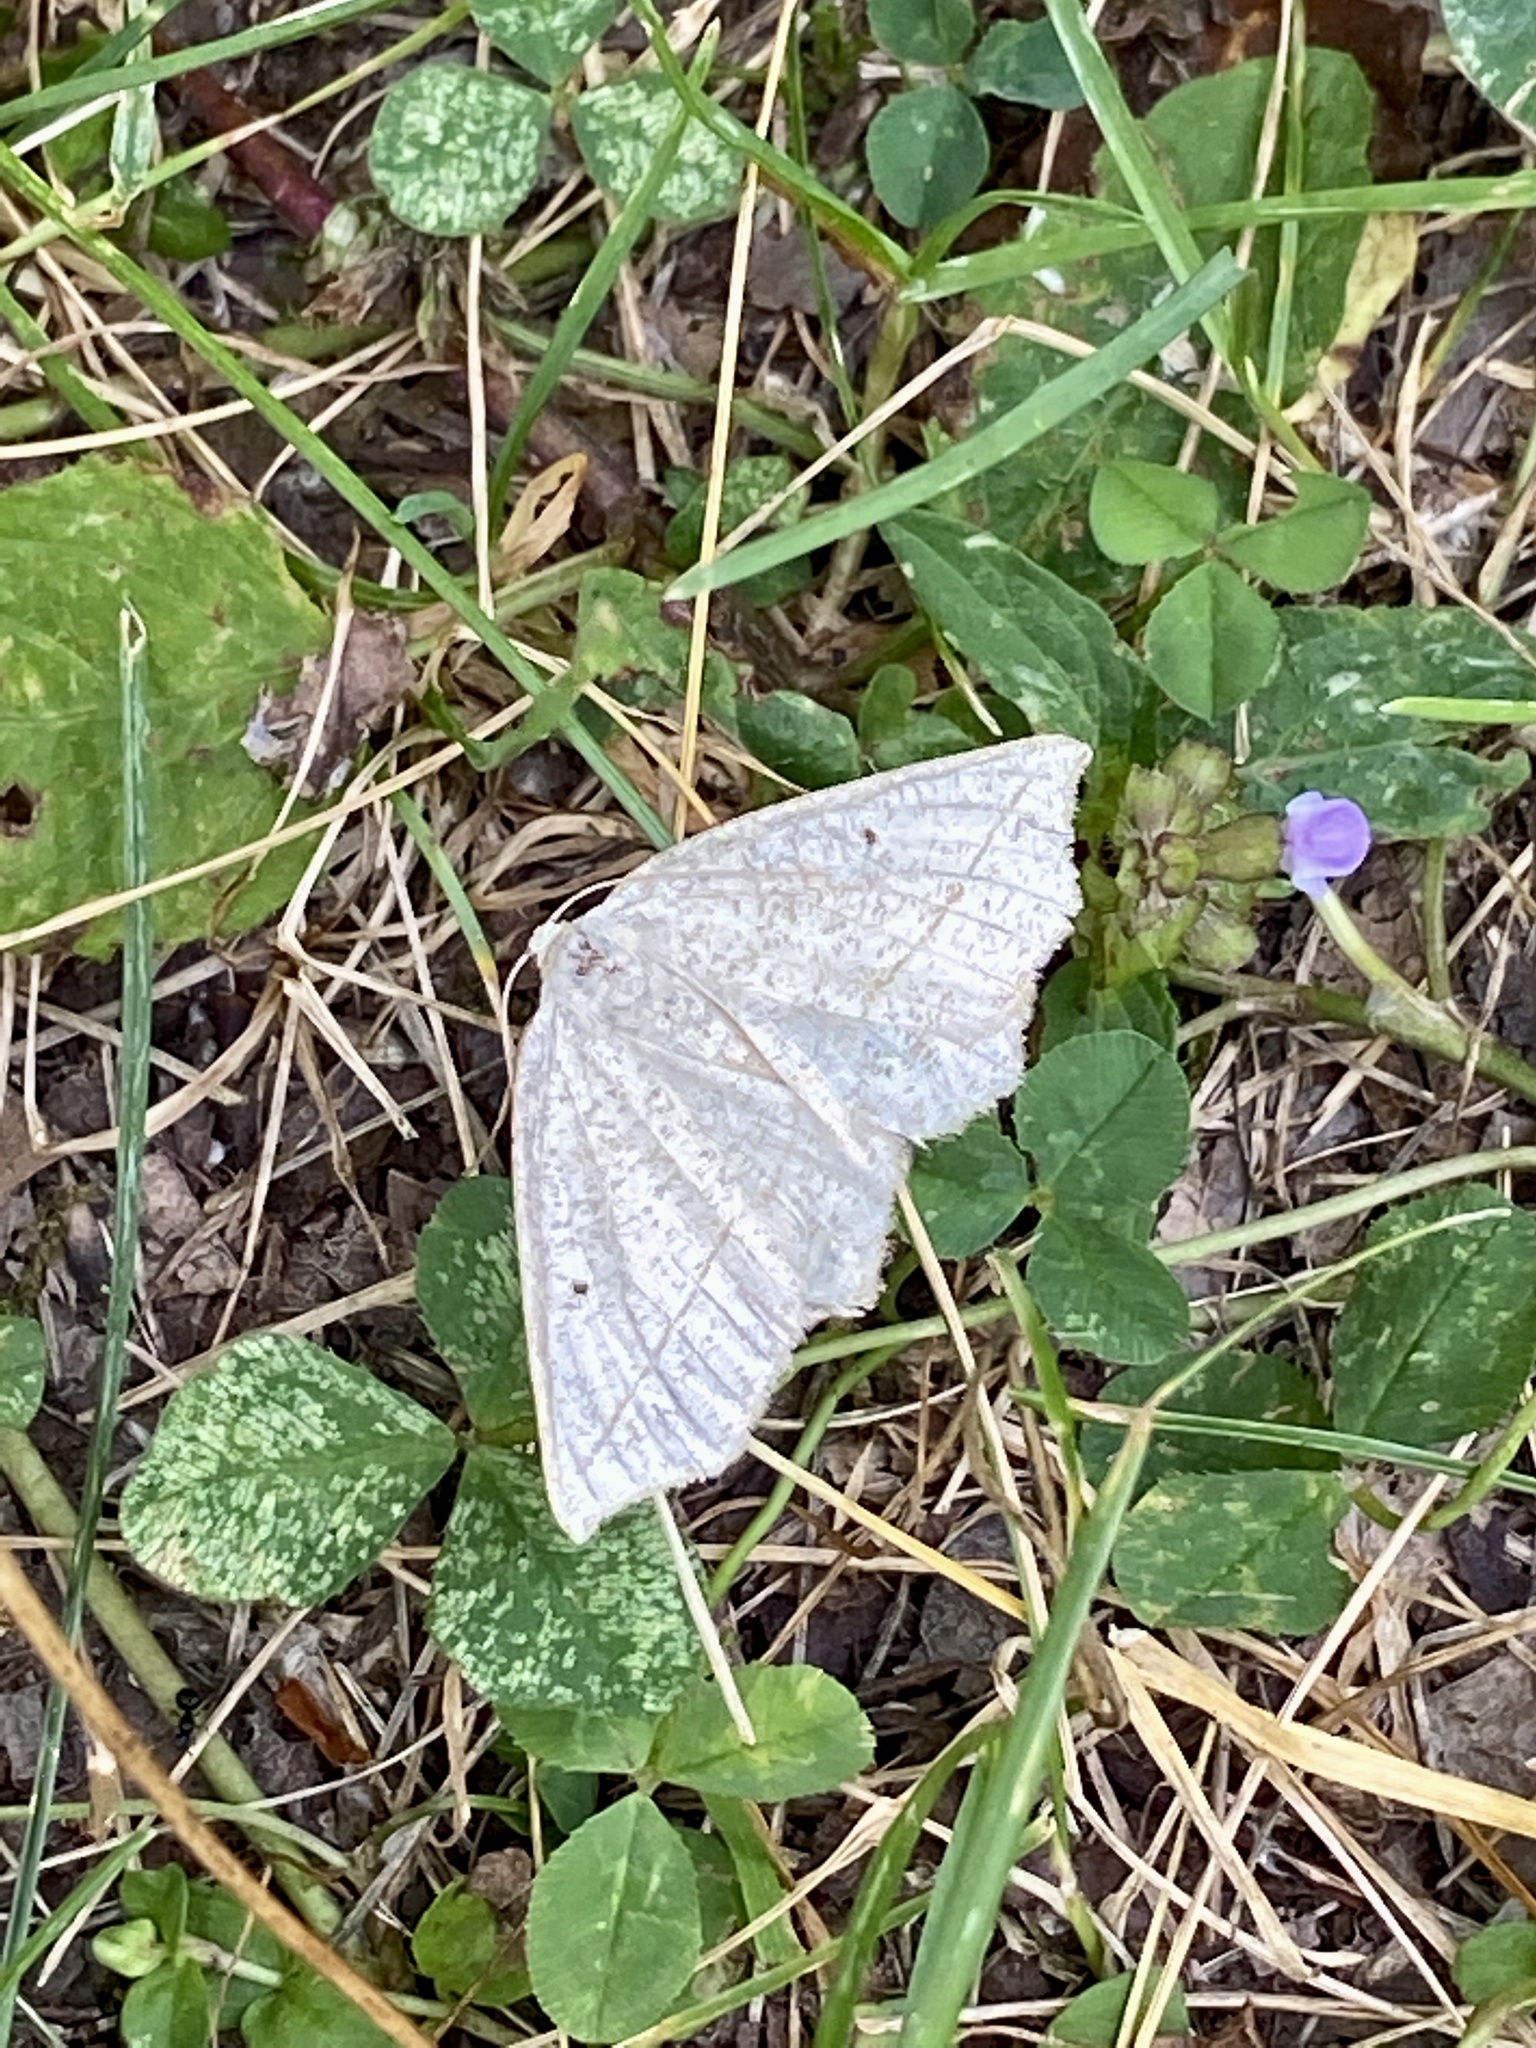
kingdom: Animalia
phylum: Arthropoda
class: Insecta
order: Lepidoptera
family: Geometridae
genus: Eusarca
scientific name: Eusarca confusaria
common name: Confused eusarca
